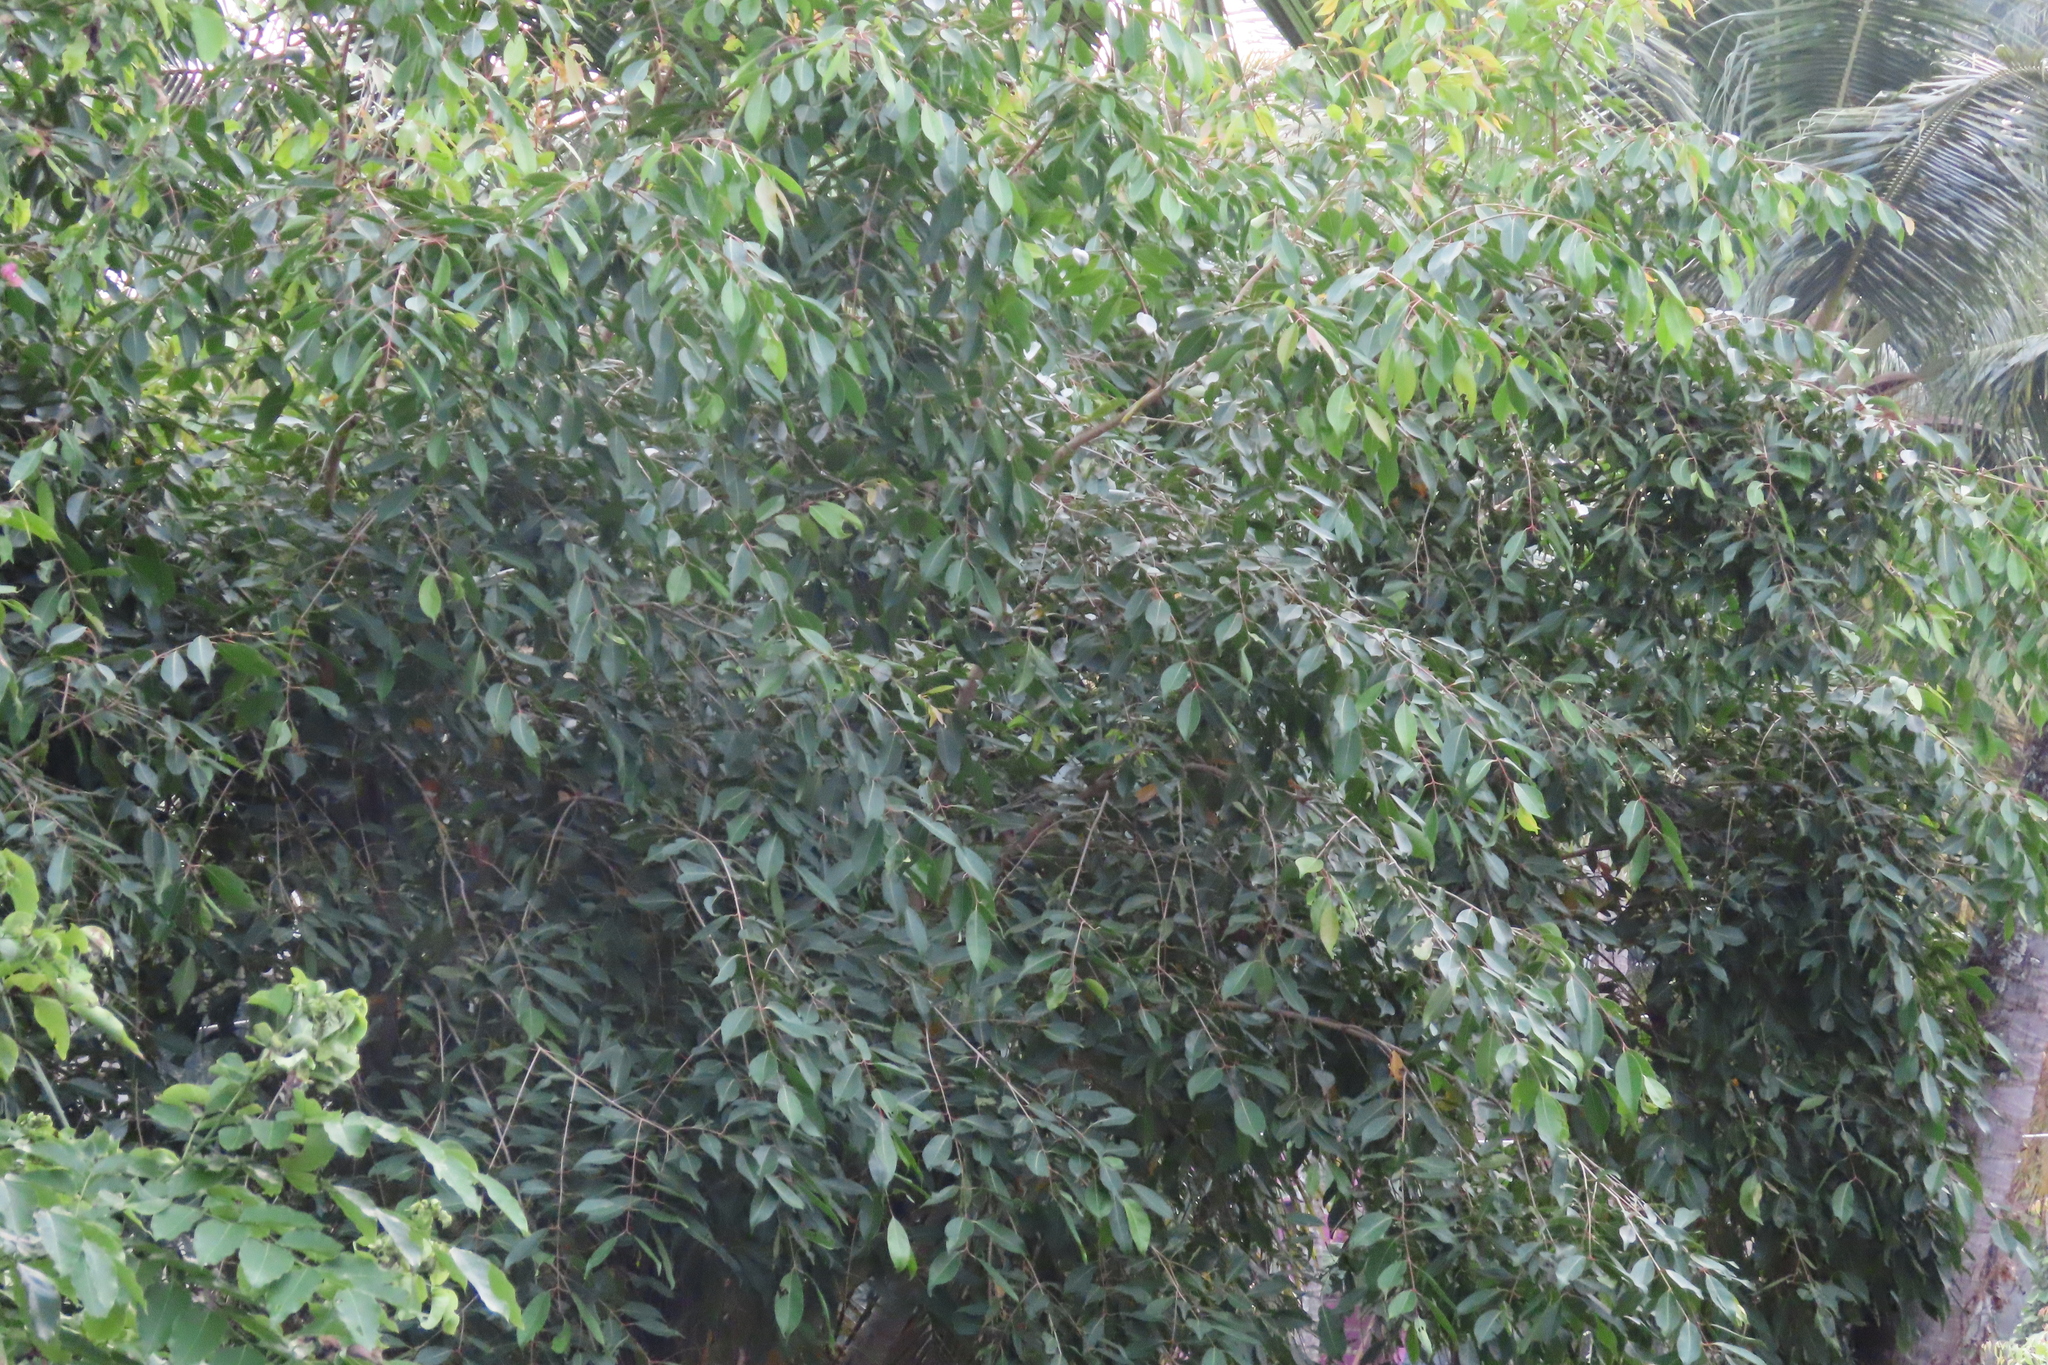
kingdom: Plantae
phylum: Tracheophyta
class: Magnoliopsida
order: Myrtales
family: Myrtaceae
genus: Syzygium
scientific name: Syzygium cumini
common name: Java plum
